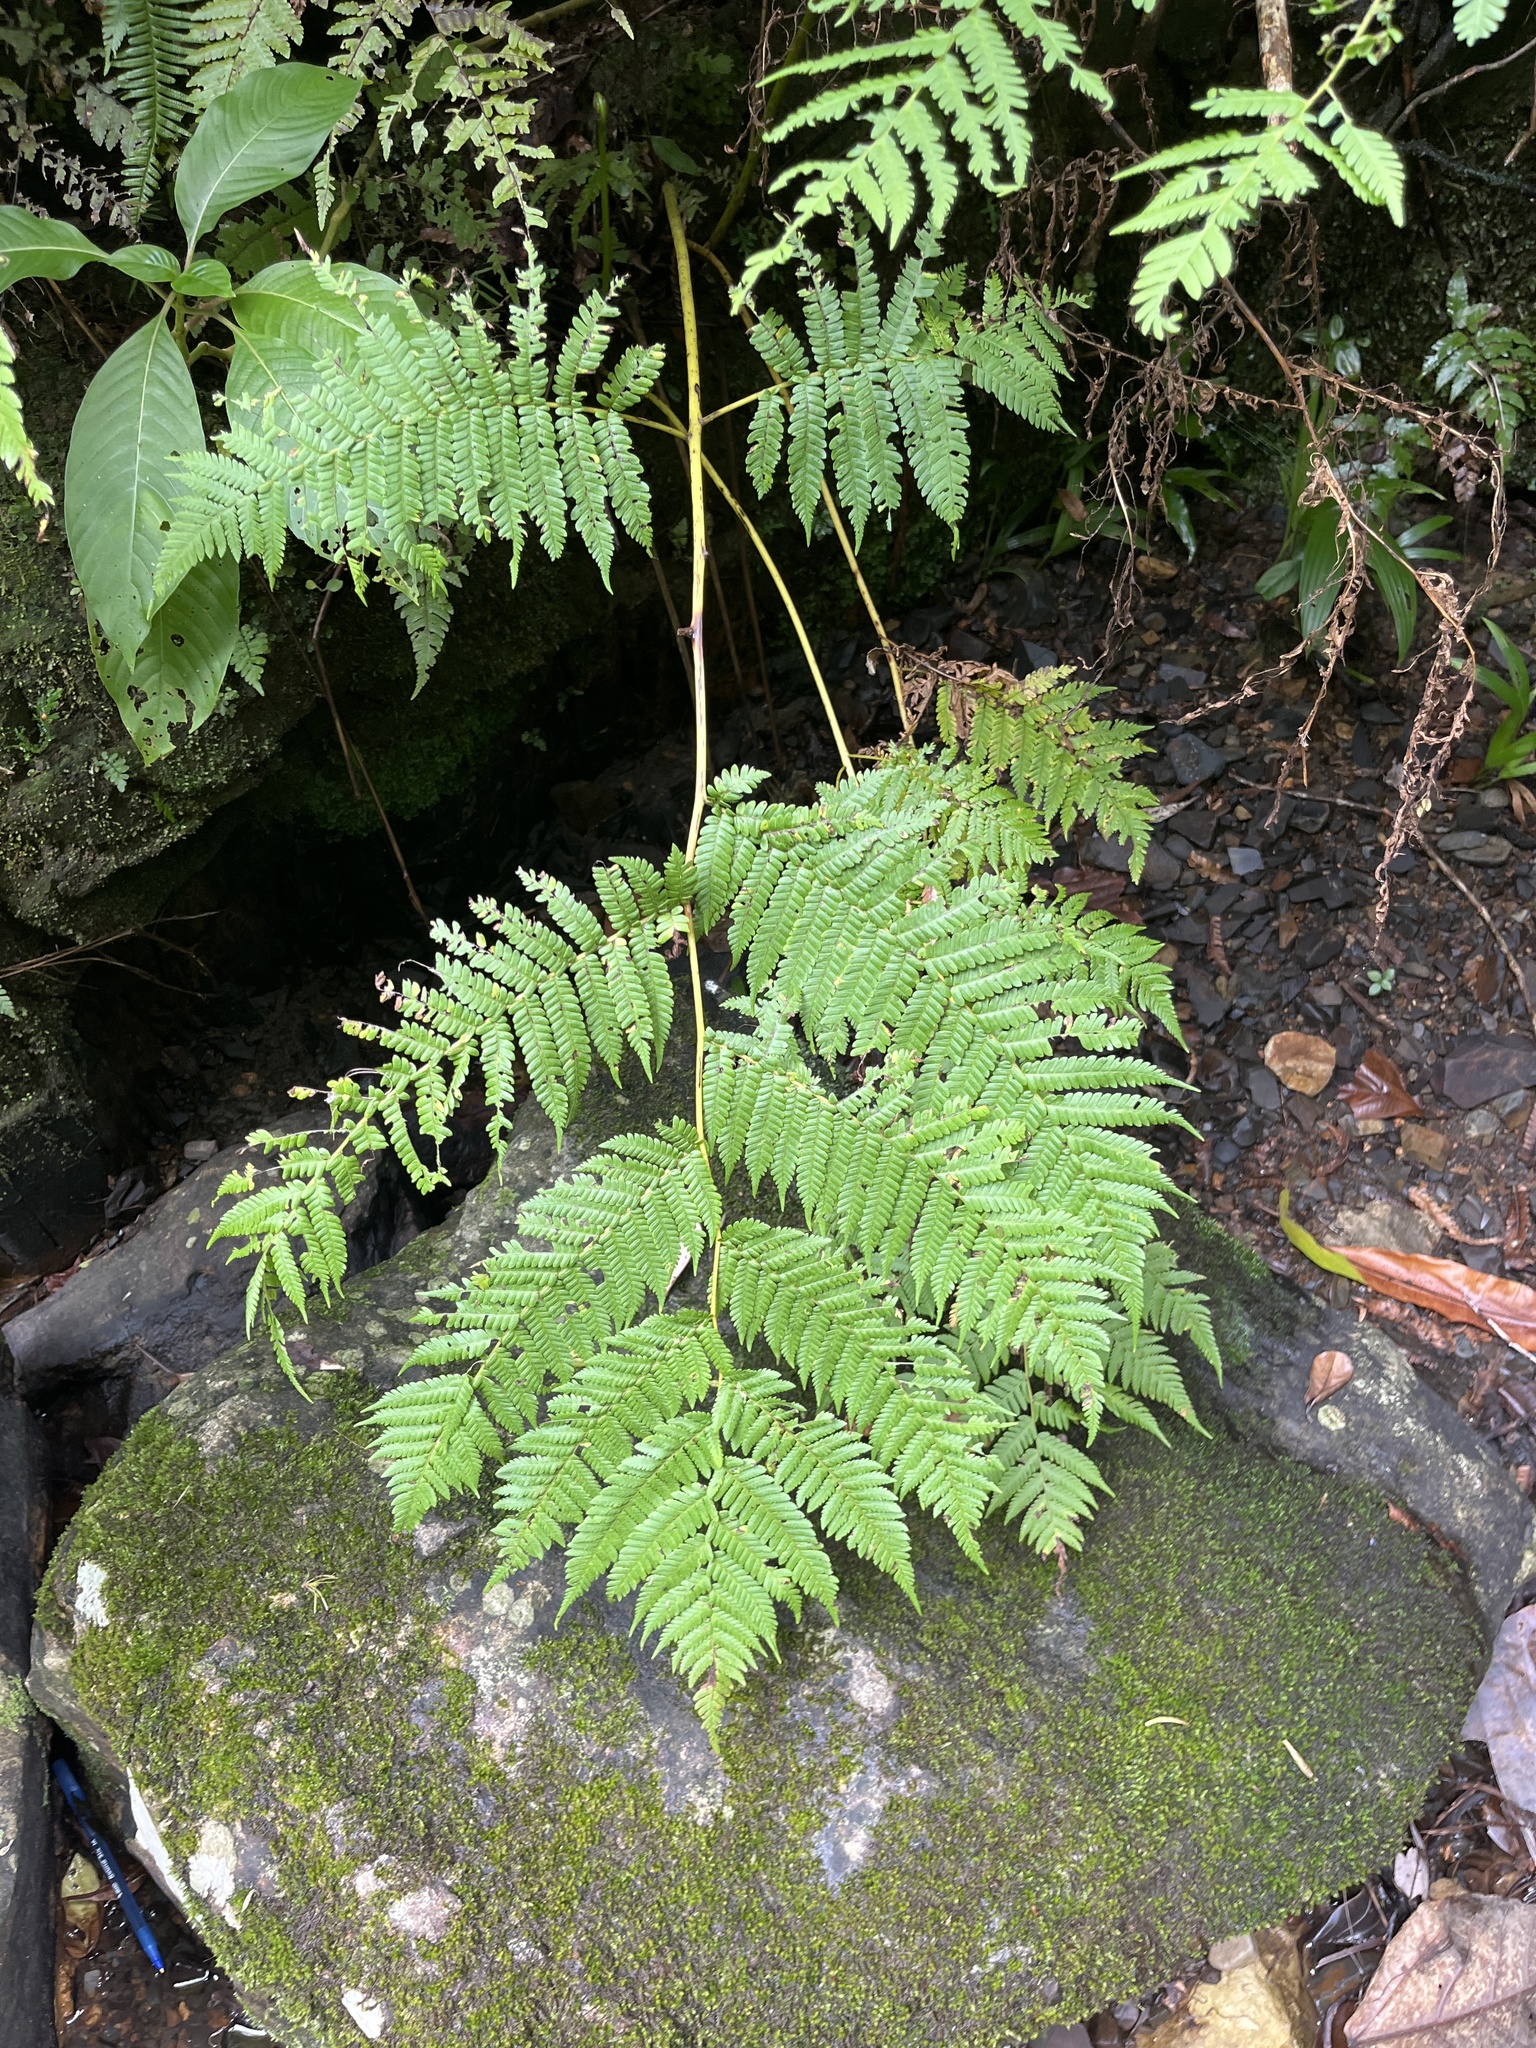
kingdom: Plantae
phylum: Tracheophyta
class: Polypodiopsida
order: Cyatheales
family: Cyatheaceae
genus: Cyathea
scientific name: Cyathea arborea
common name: West indian treefern
